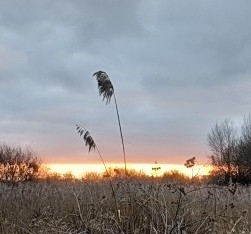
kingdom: Plantae
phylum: Tracheophyta
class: Liliopsida
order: Poales
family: Poaceae
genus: Phragmites
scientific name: Phragmites australis
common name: Common reed
